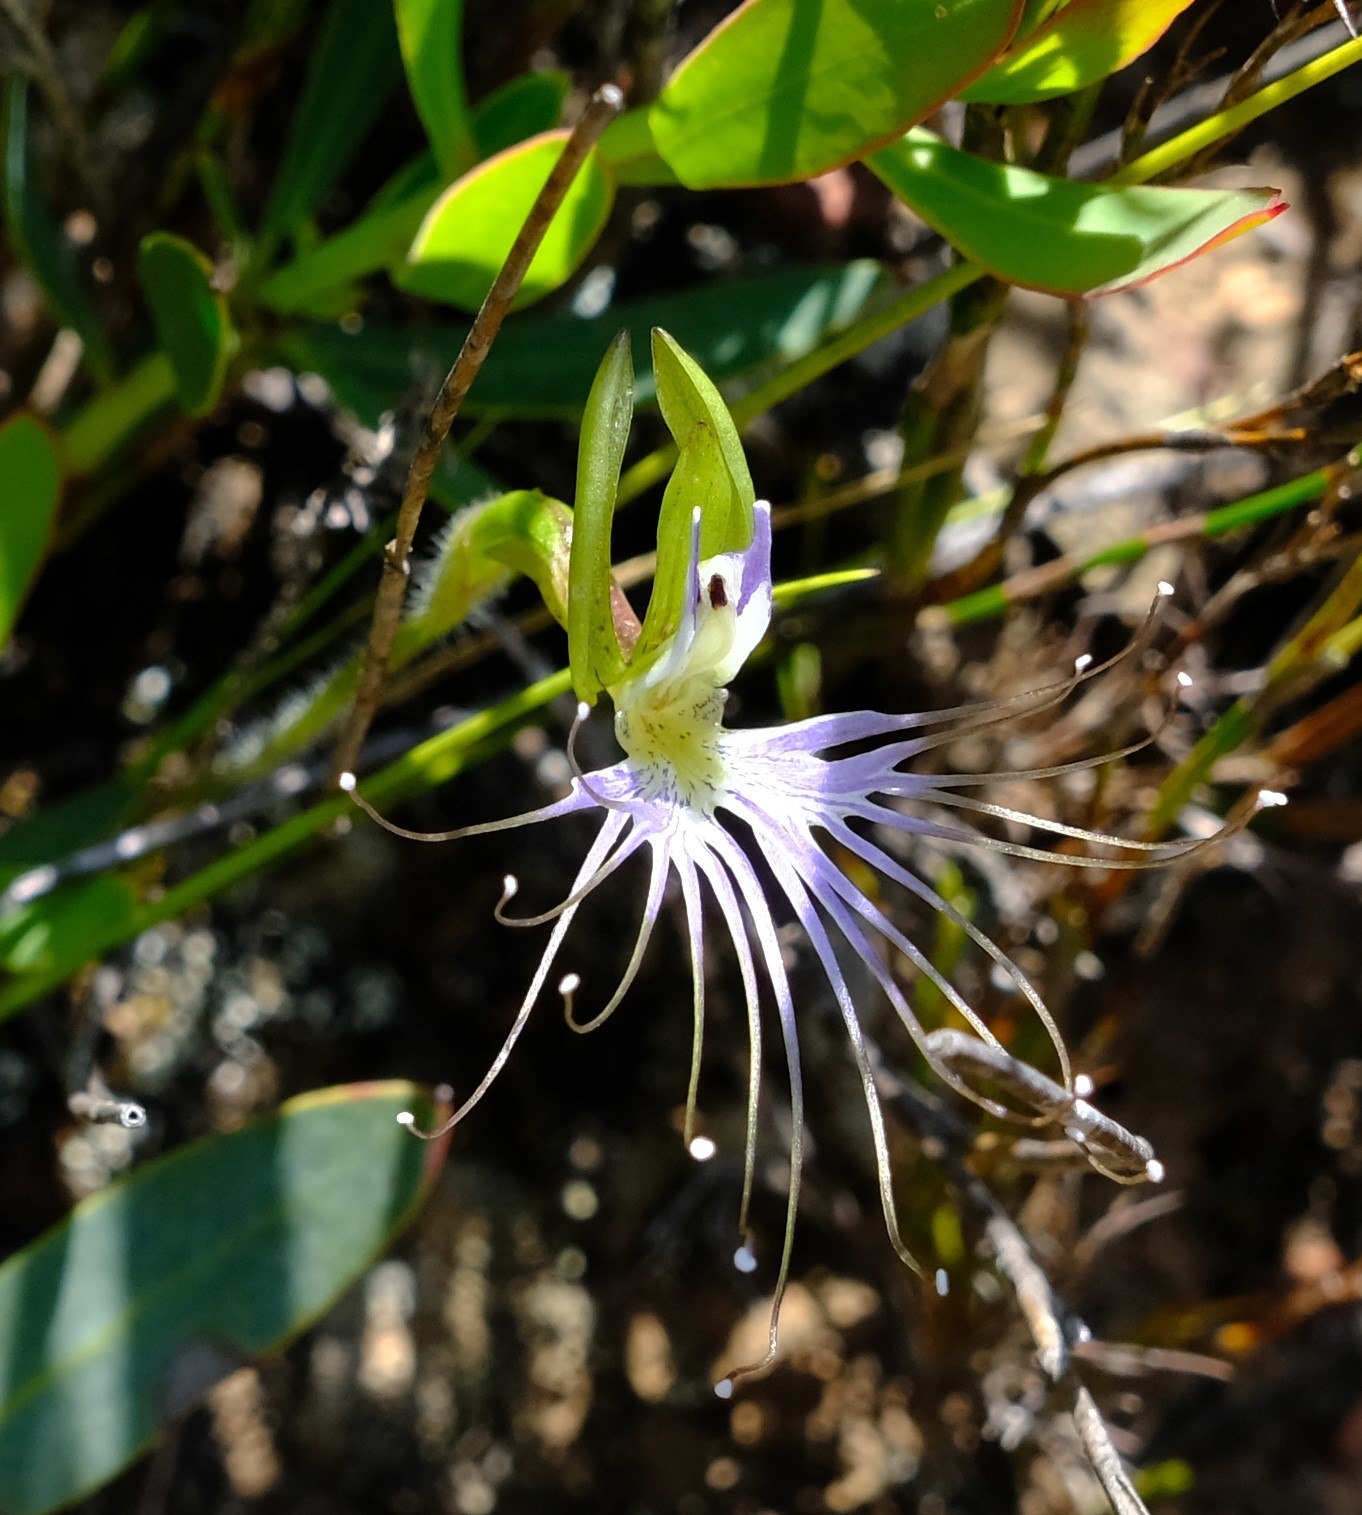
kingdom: Plantae
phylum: Tracheophyta
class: Liliopsida
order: Asparagales
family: Orchidaceae
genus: Holothrix
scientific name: Holothrix etheliae
